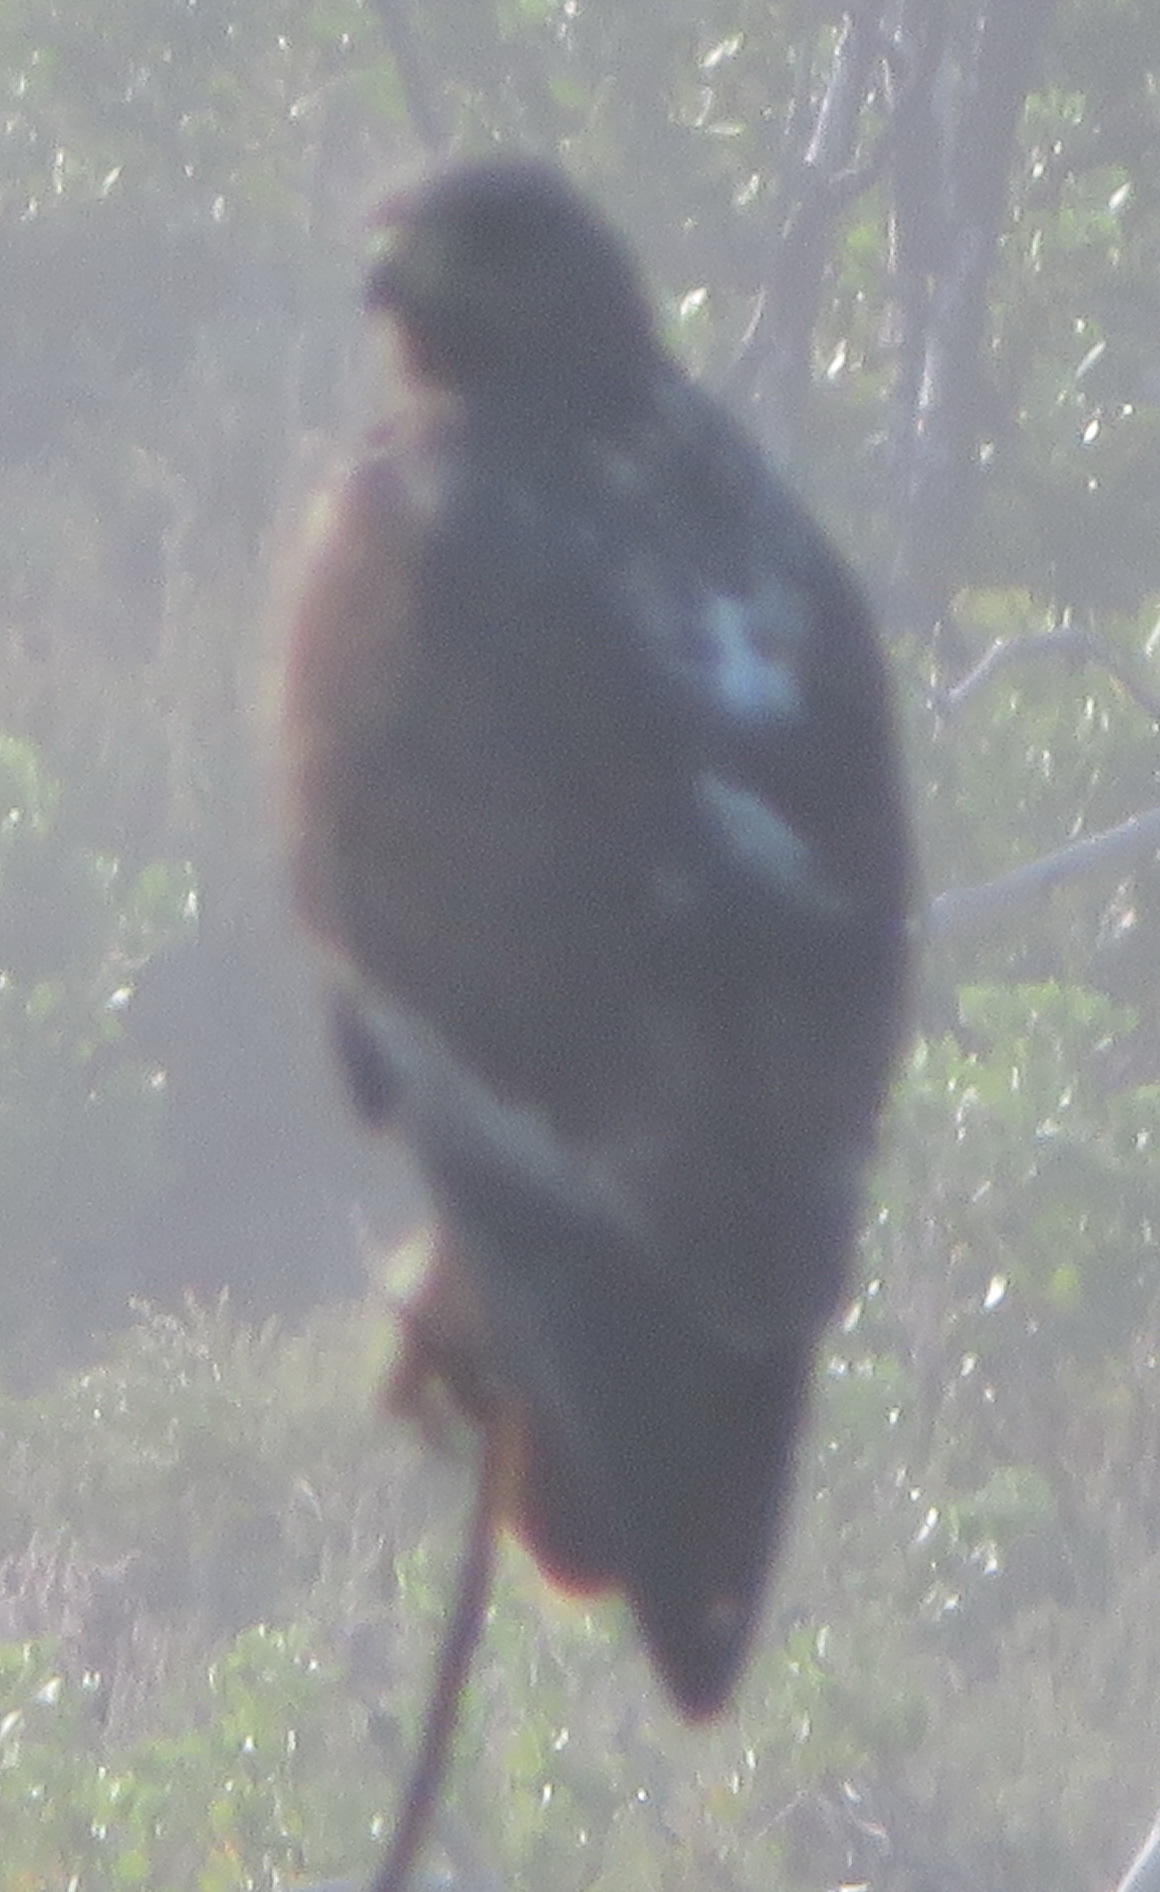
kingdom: Animalia
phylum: Chordata
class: Aves
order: Accipitriformes
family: Accipitridae
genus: Buteo
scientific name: Buteo rufofuscus
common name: Jackal buzzard
